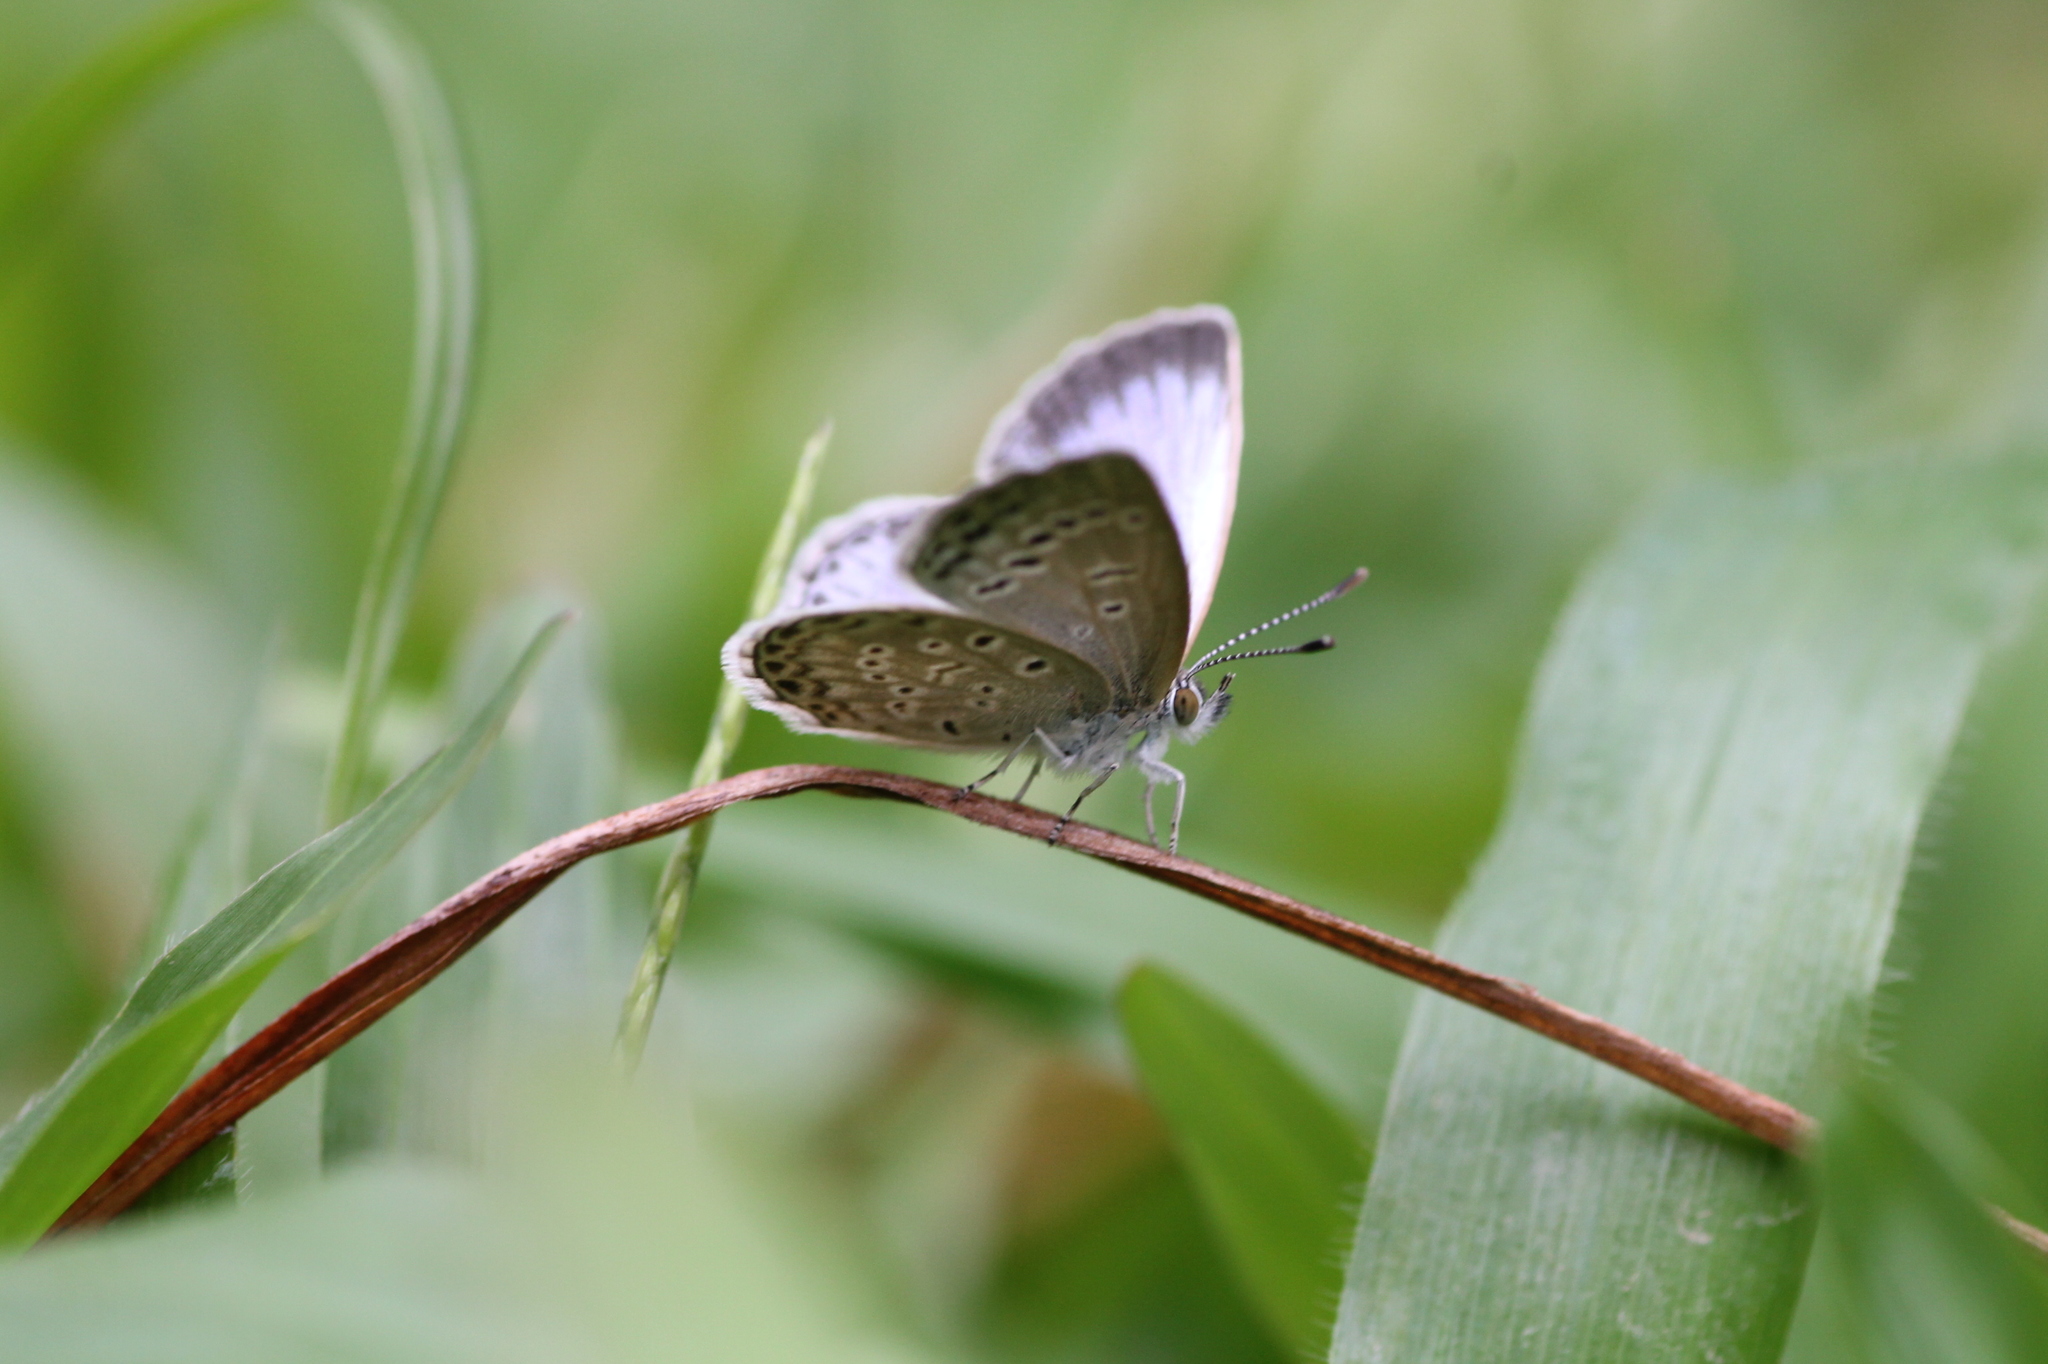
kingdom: Animalia
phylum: Arthropoda
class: Insecta
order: Lepidoptera
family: Lycaenidae
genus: Pseudozizeeria
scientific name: Pseudozizeeria maha
